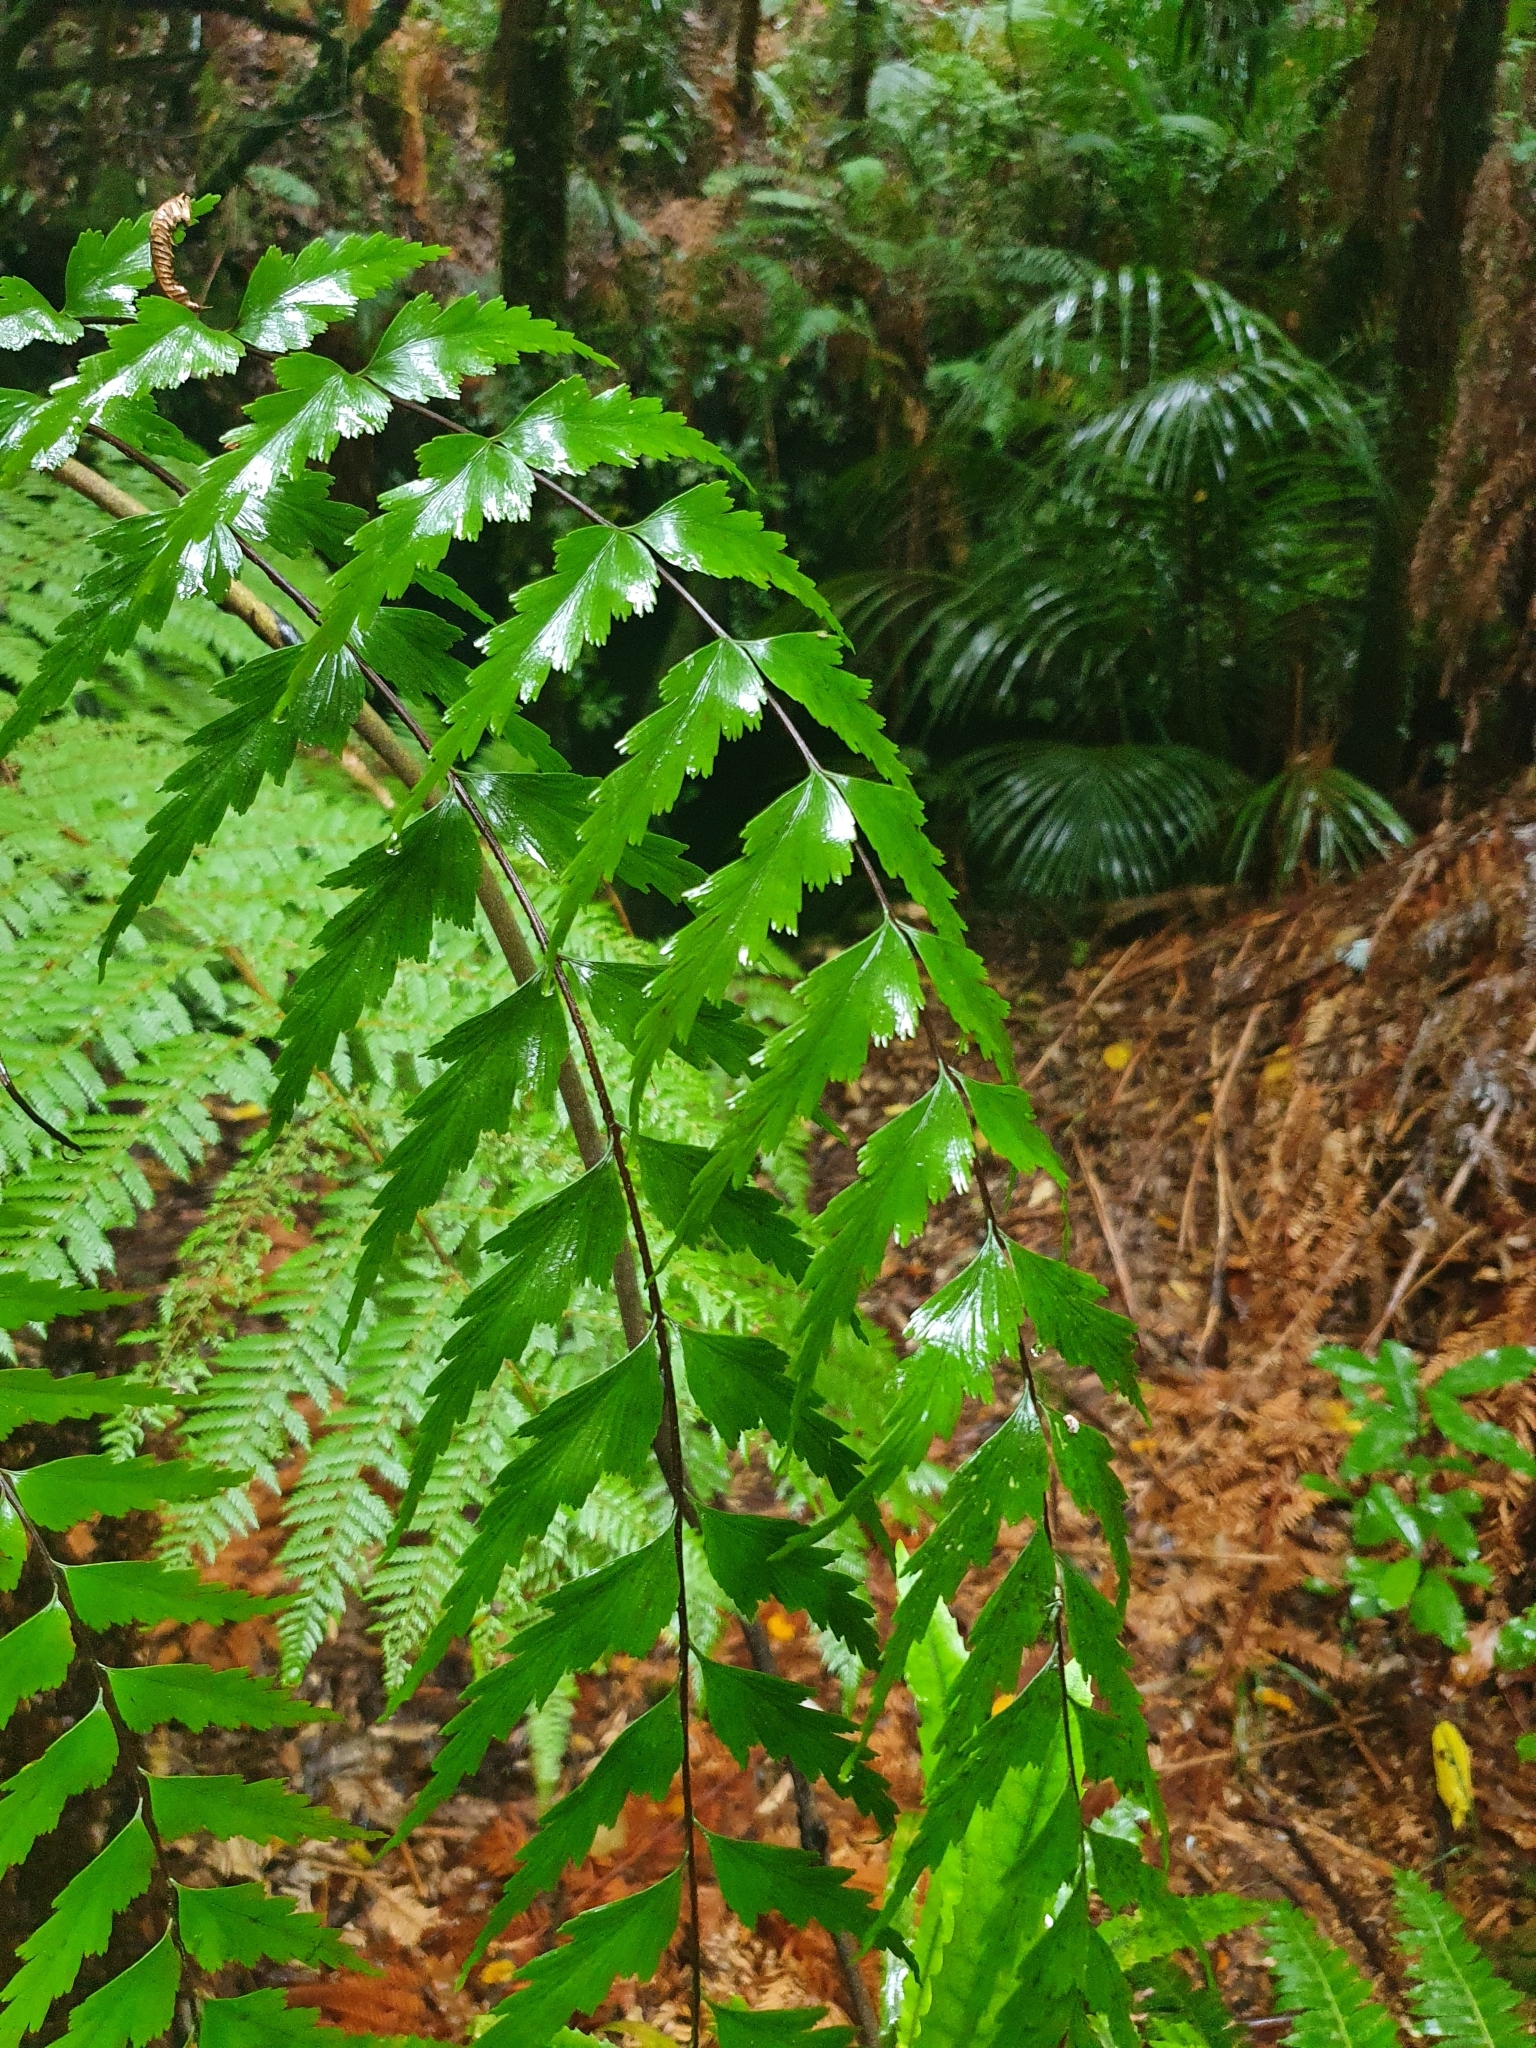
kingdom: Plantae
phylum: Tracheophyta
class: Polypodiopsida
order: Polypodiales
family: Aspleniaceae
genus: Asplenium
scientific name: Asplenium polyodon
